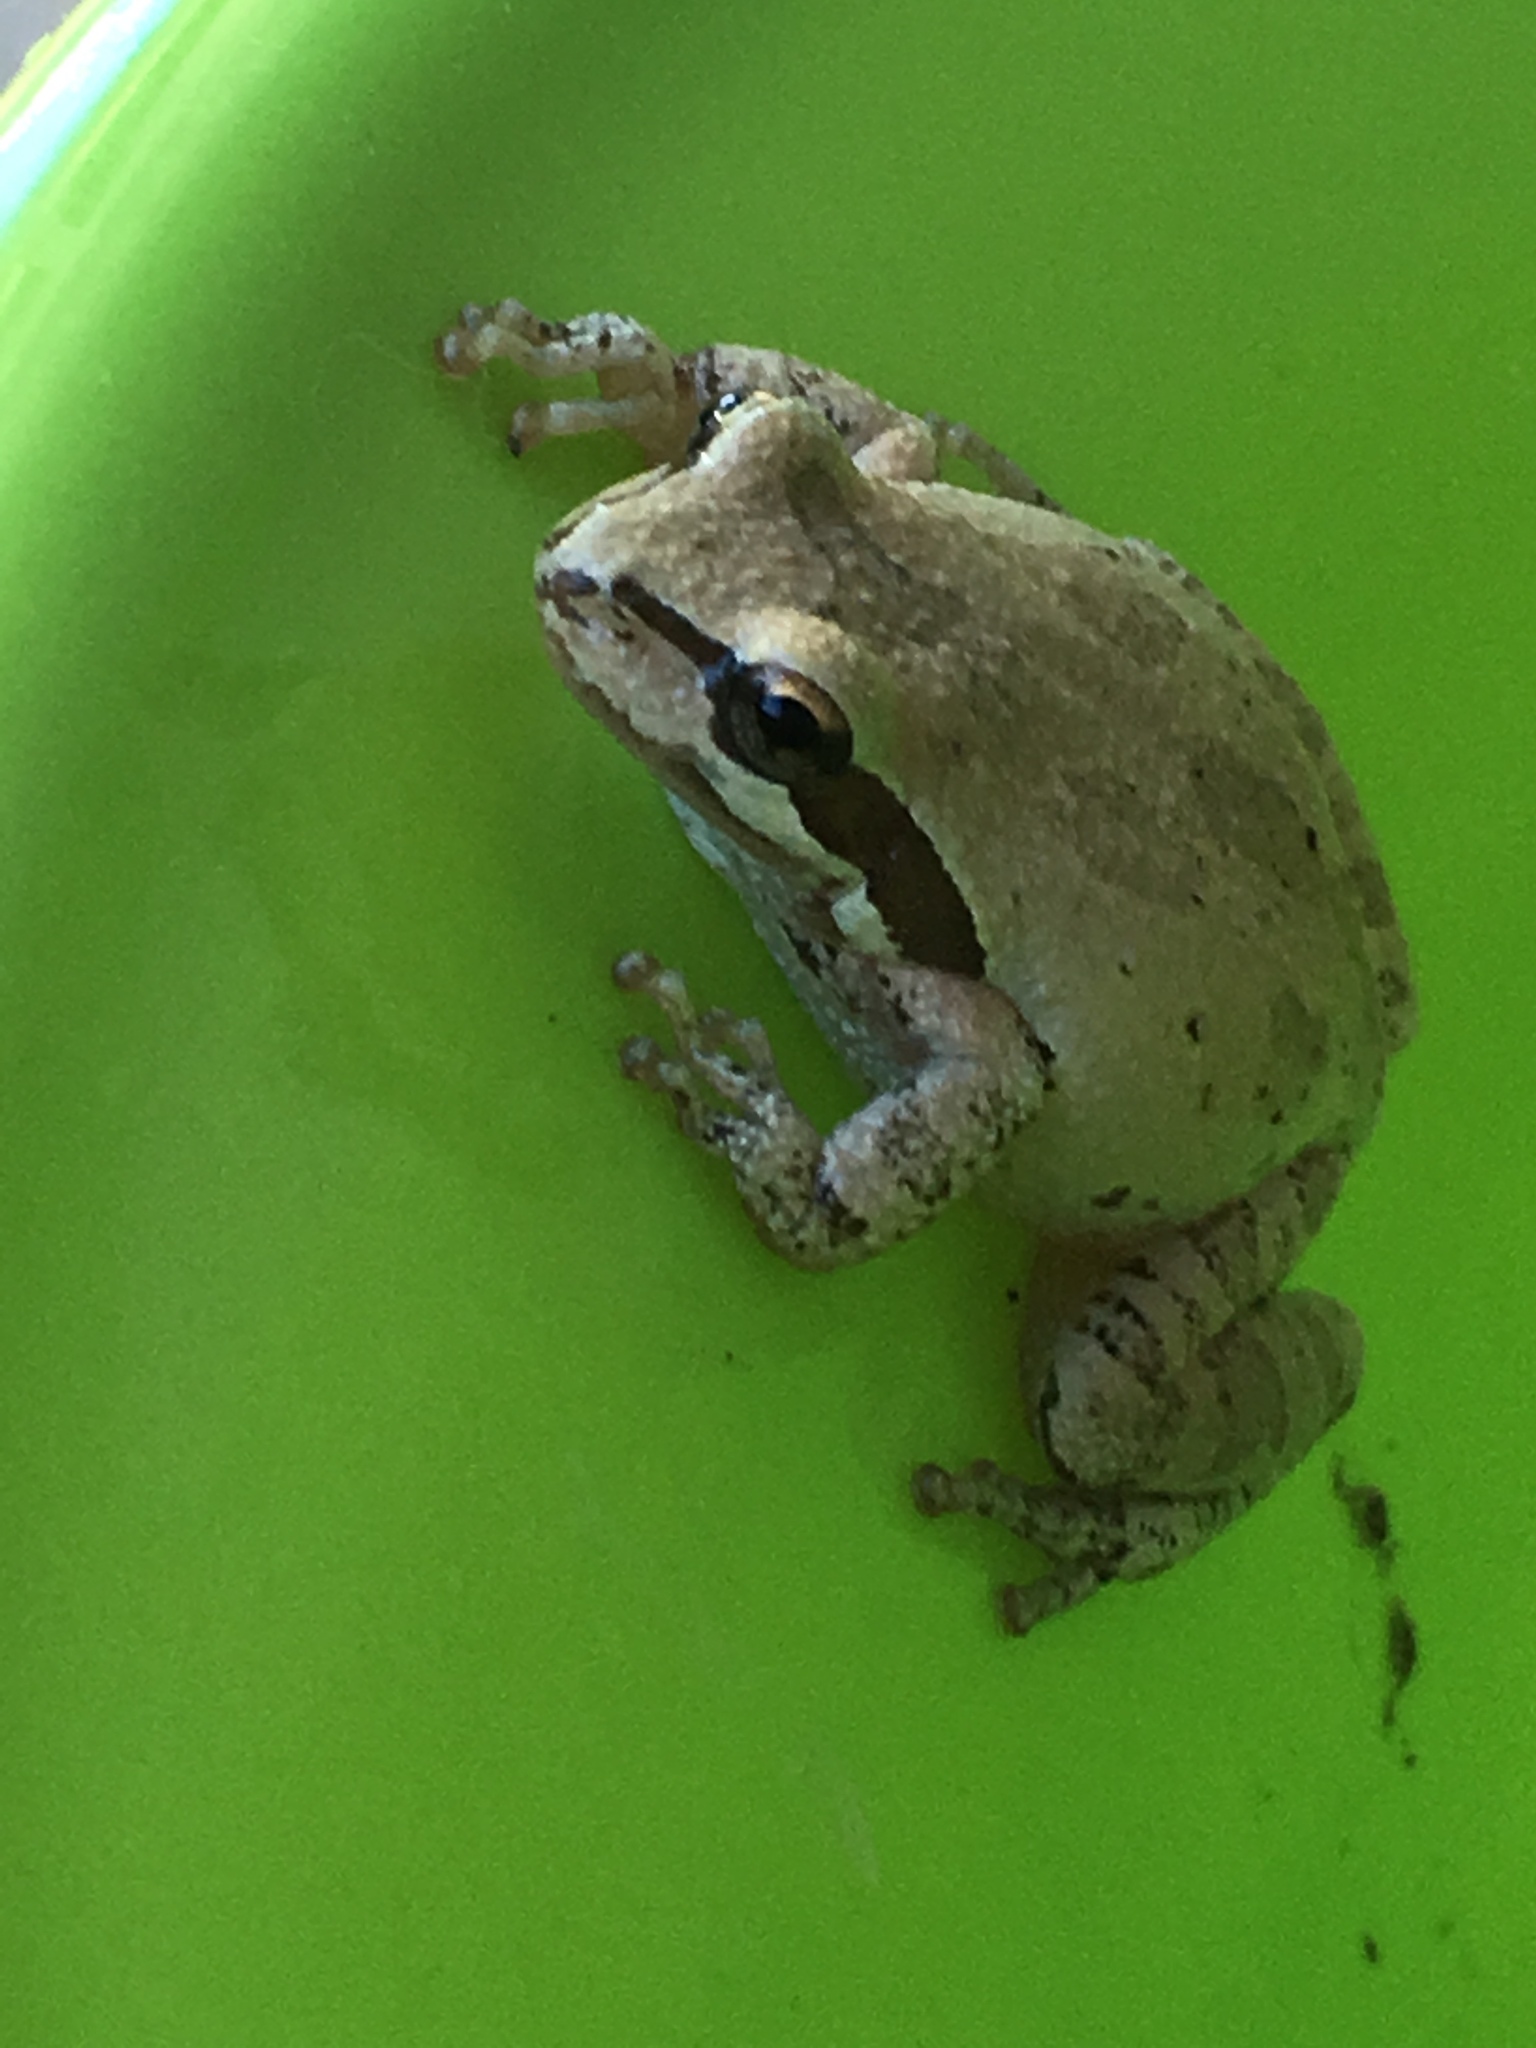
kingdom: Animalia
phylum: Chordata
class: Amphibia
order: Anura
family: Hylidae
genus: Pseudacris
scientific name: Pseudacris regilla
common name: Pacific chorus frog
